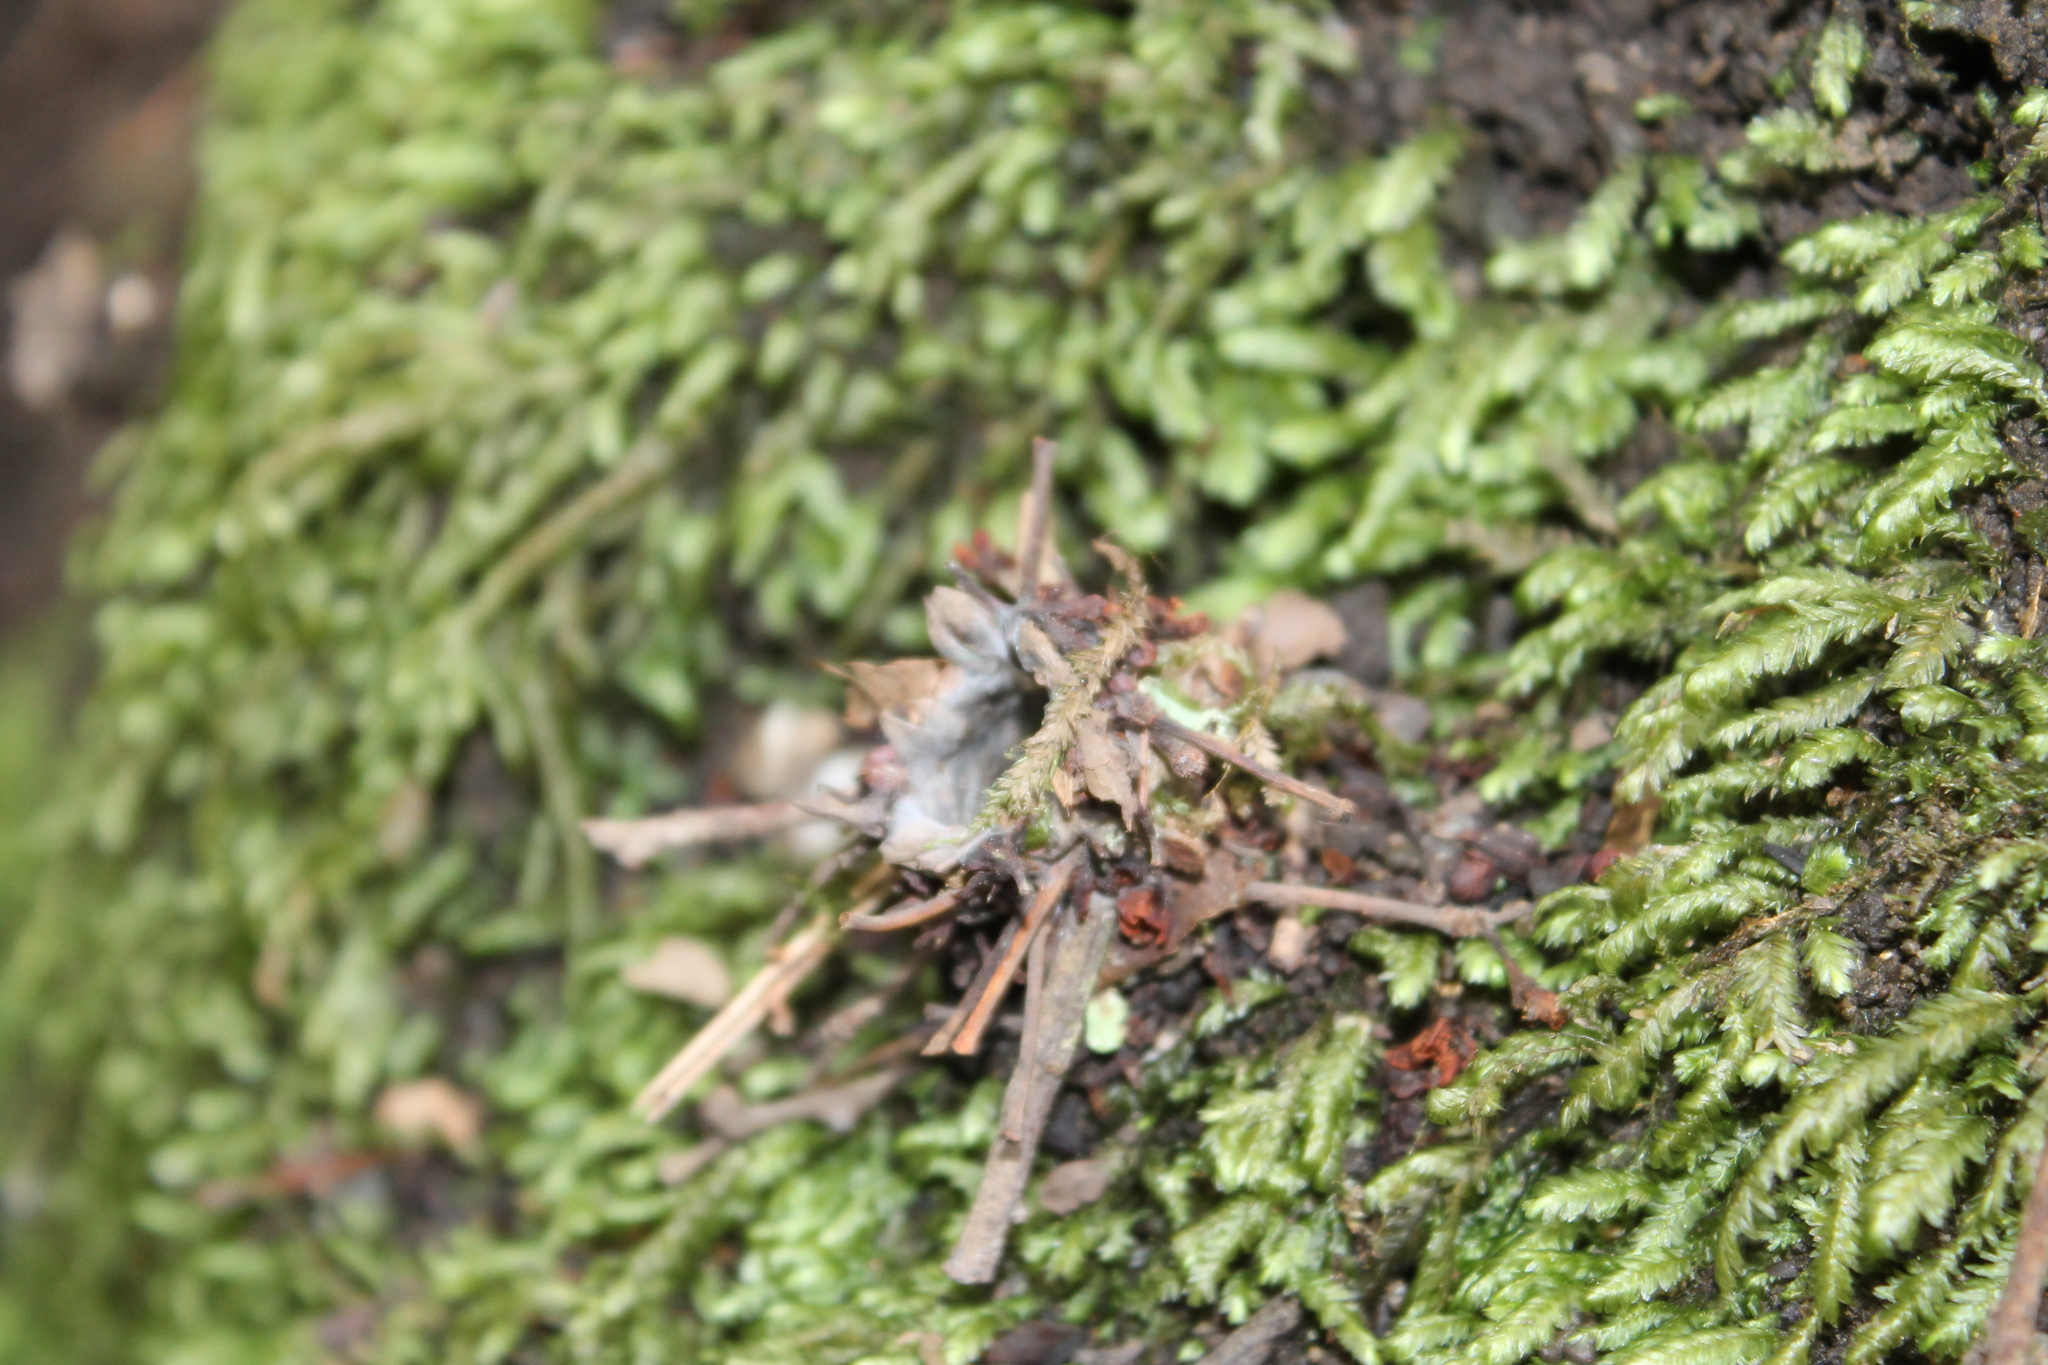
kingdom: Animalia
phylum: Arthropoda
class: Arachnida
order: Araneae
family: Antrodiaetidae
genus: Atypoides
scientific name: Atypoides riversi
